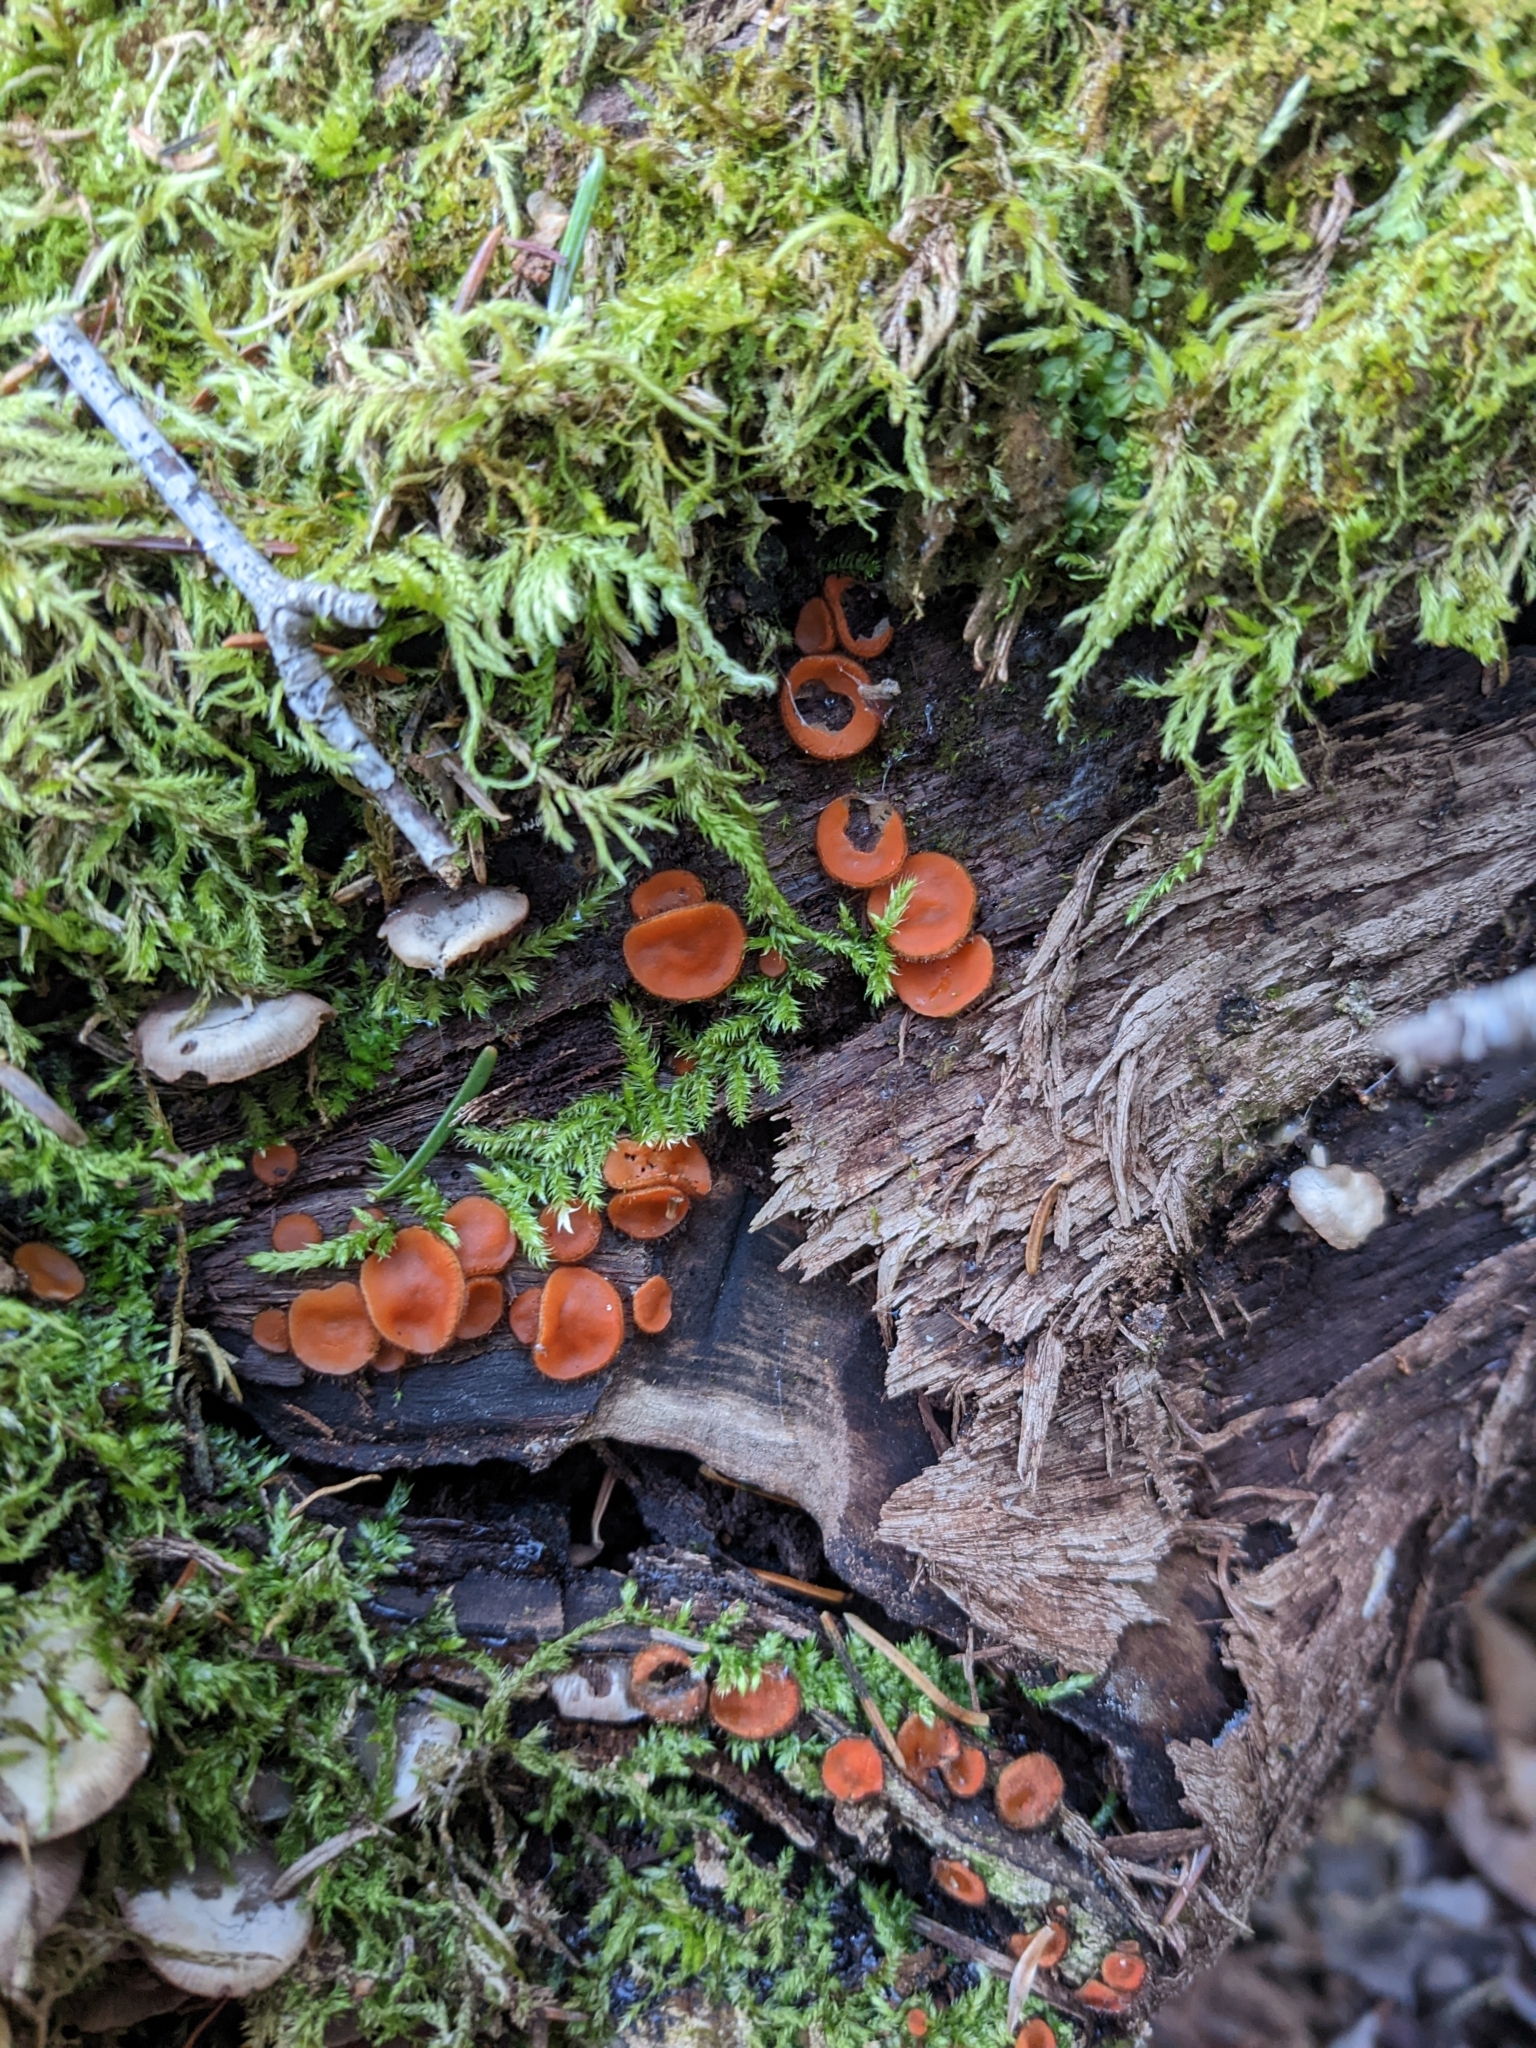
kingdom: Fungi
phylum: Ascomycota
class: Pezizomycetes
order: Pezizales
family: Pyronemataceae
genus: Scutellinia
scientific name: Scutellinia scutellata
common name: Common eyelash
